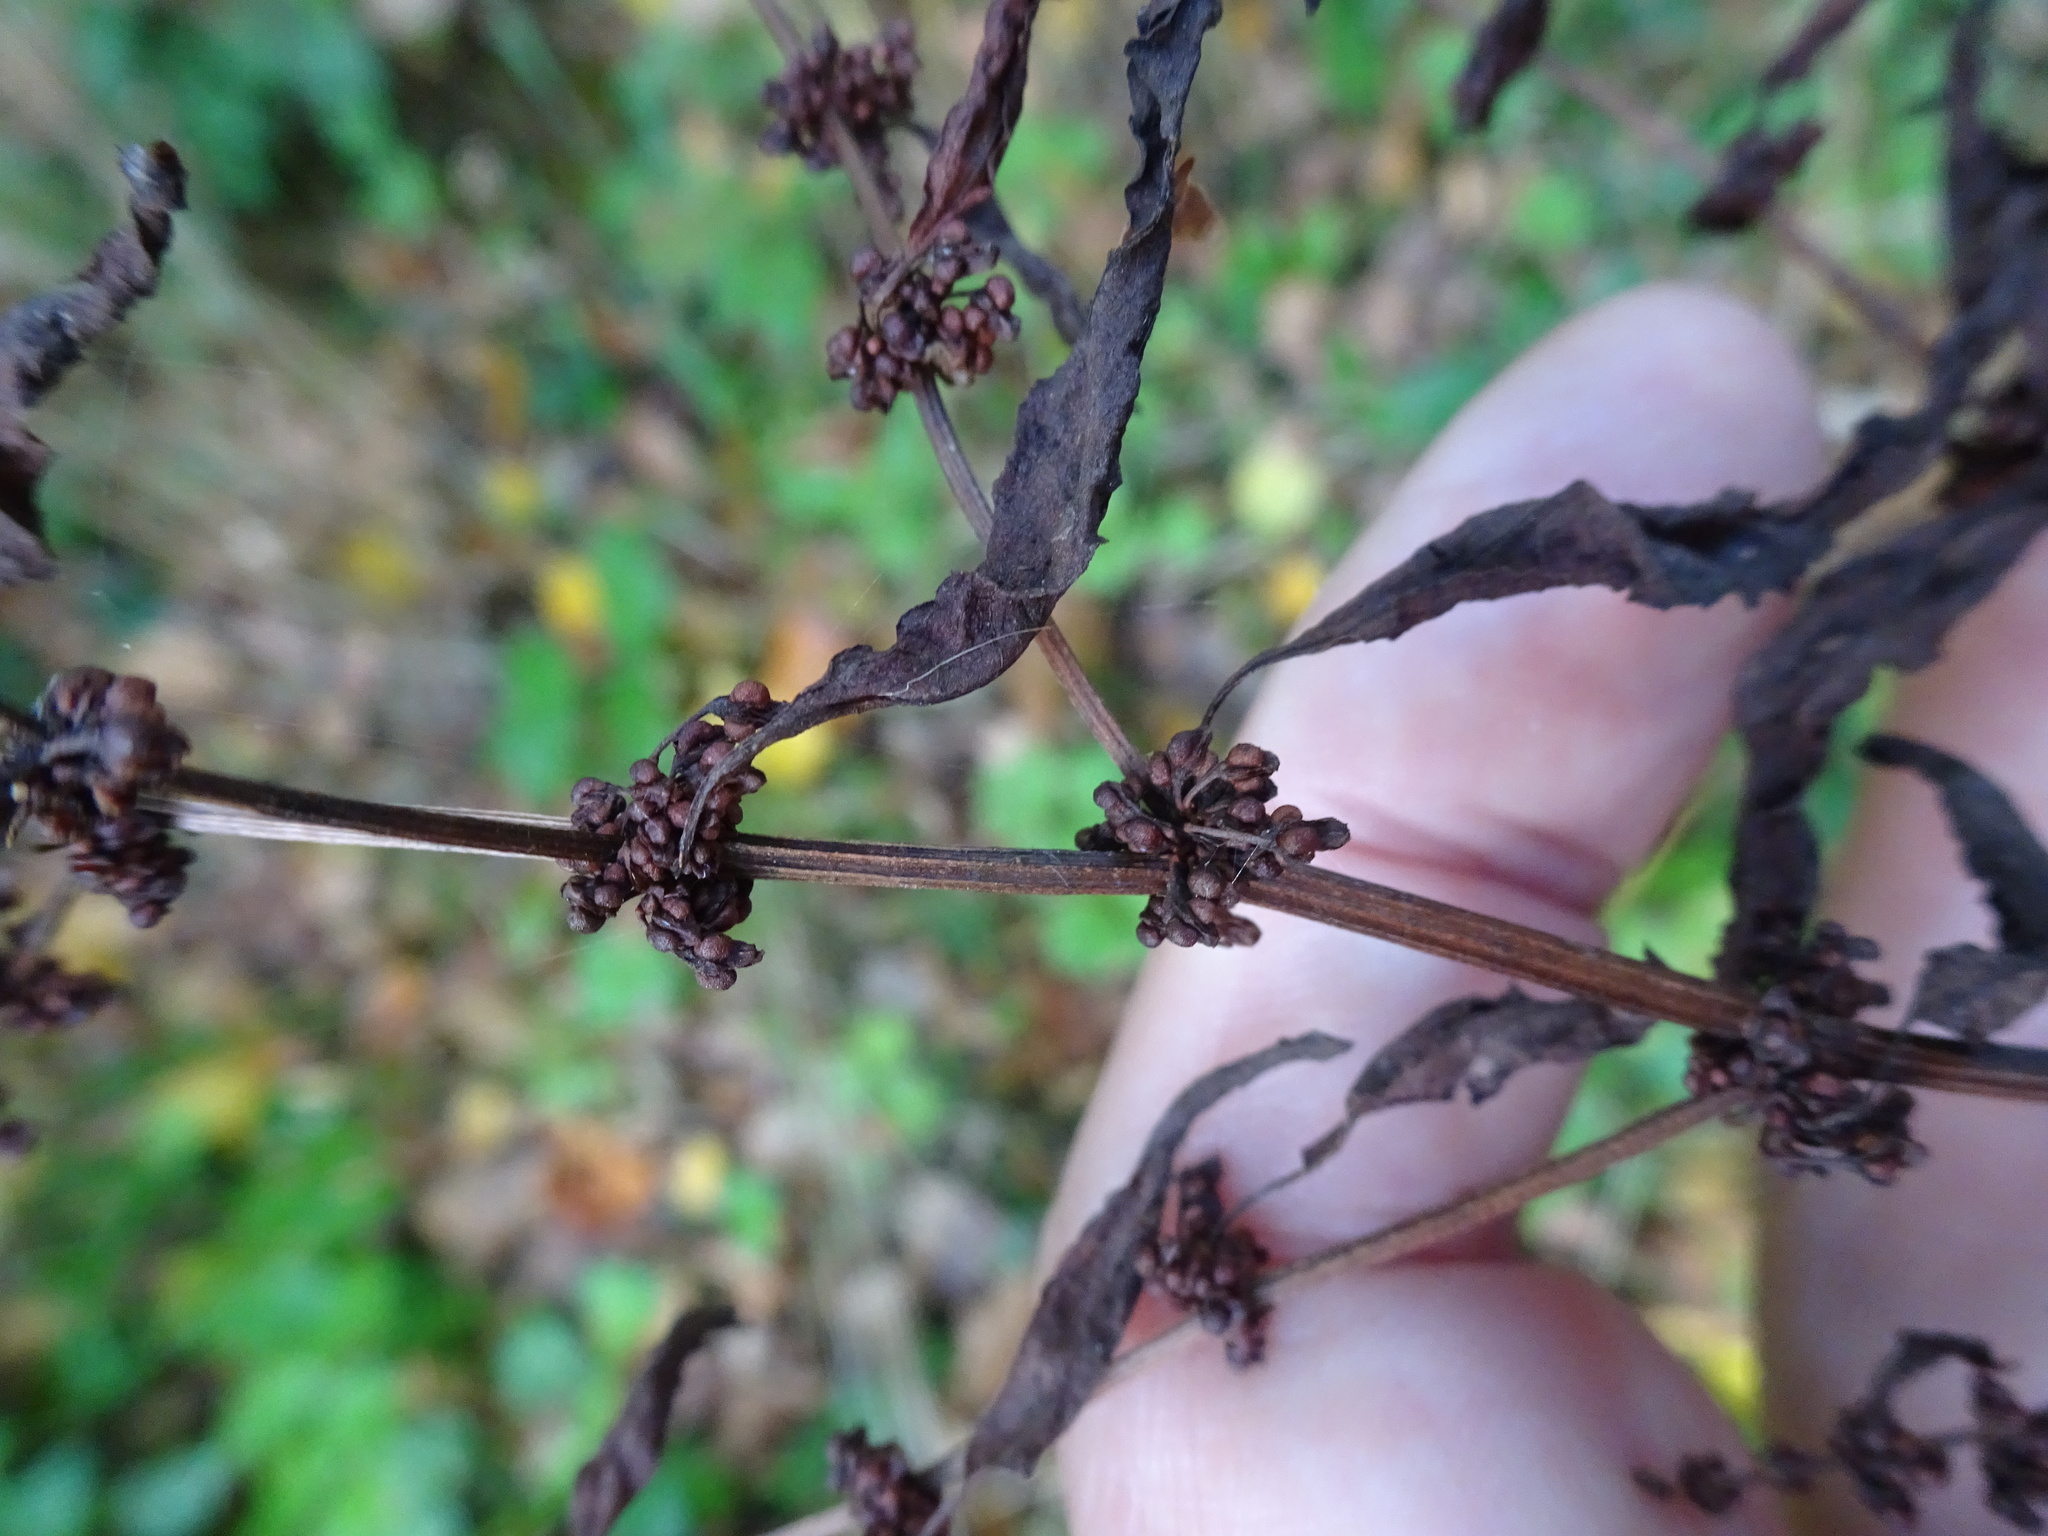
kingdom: Plantae
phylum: Tracheophyta
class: Magnoliopsida
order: Caryophyllales
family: Polygonaceae
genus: Rumex
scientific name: Rumex sanguineus
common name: Wood dock
